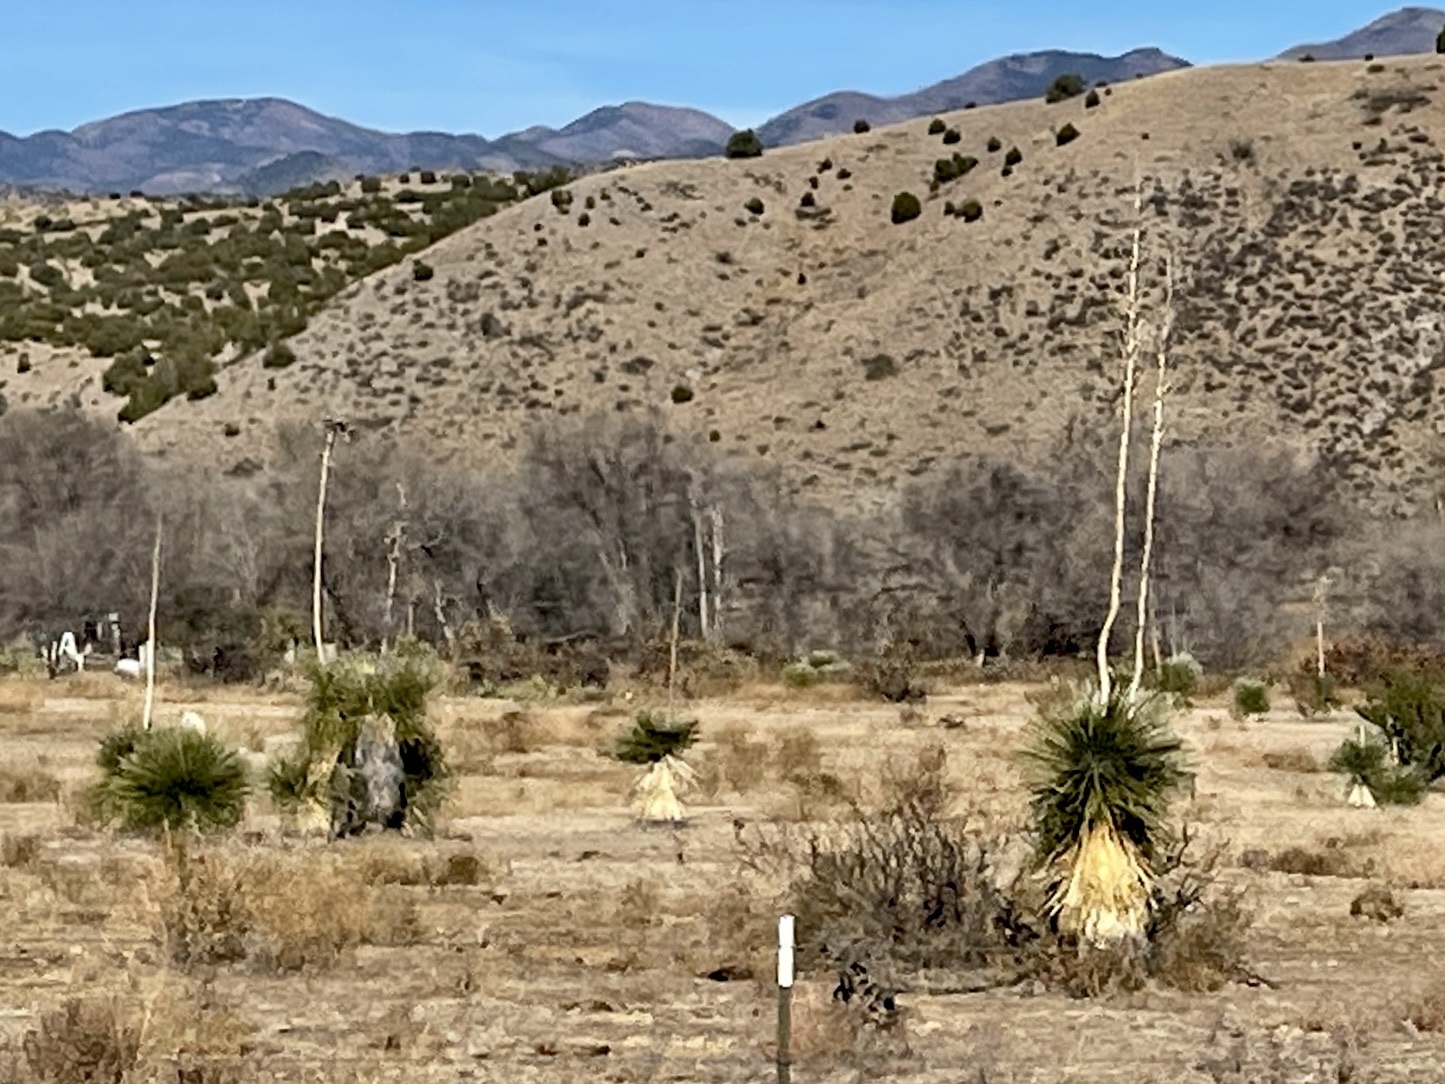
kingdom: Plantae
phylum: Tracheophyta
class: Liliopsida
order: Asparagales
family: Asparagaceae
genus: Yucca
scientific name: Yucca elata
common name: Palmella
